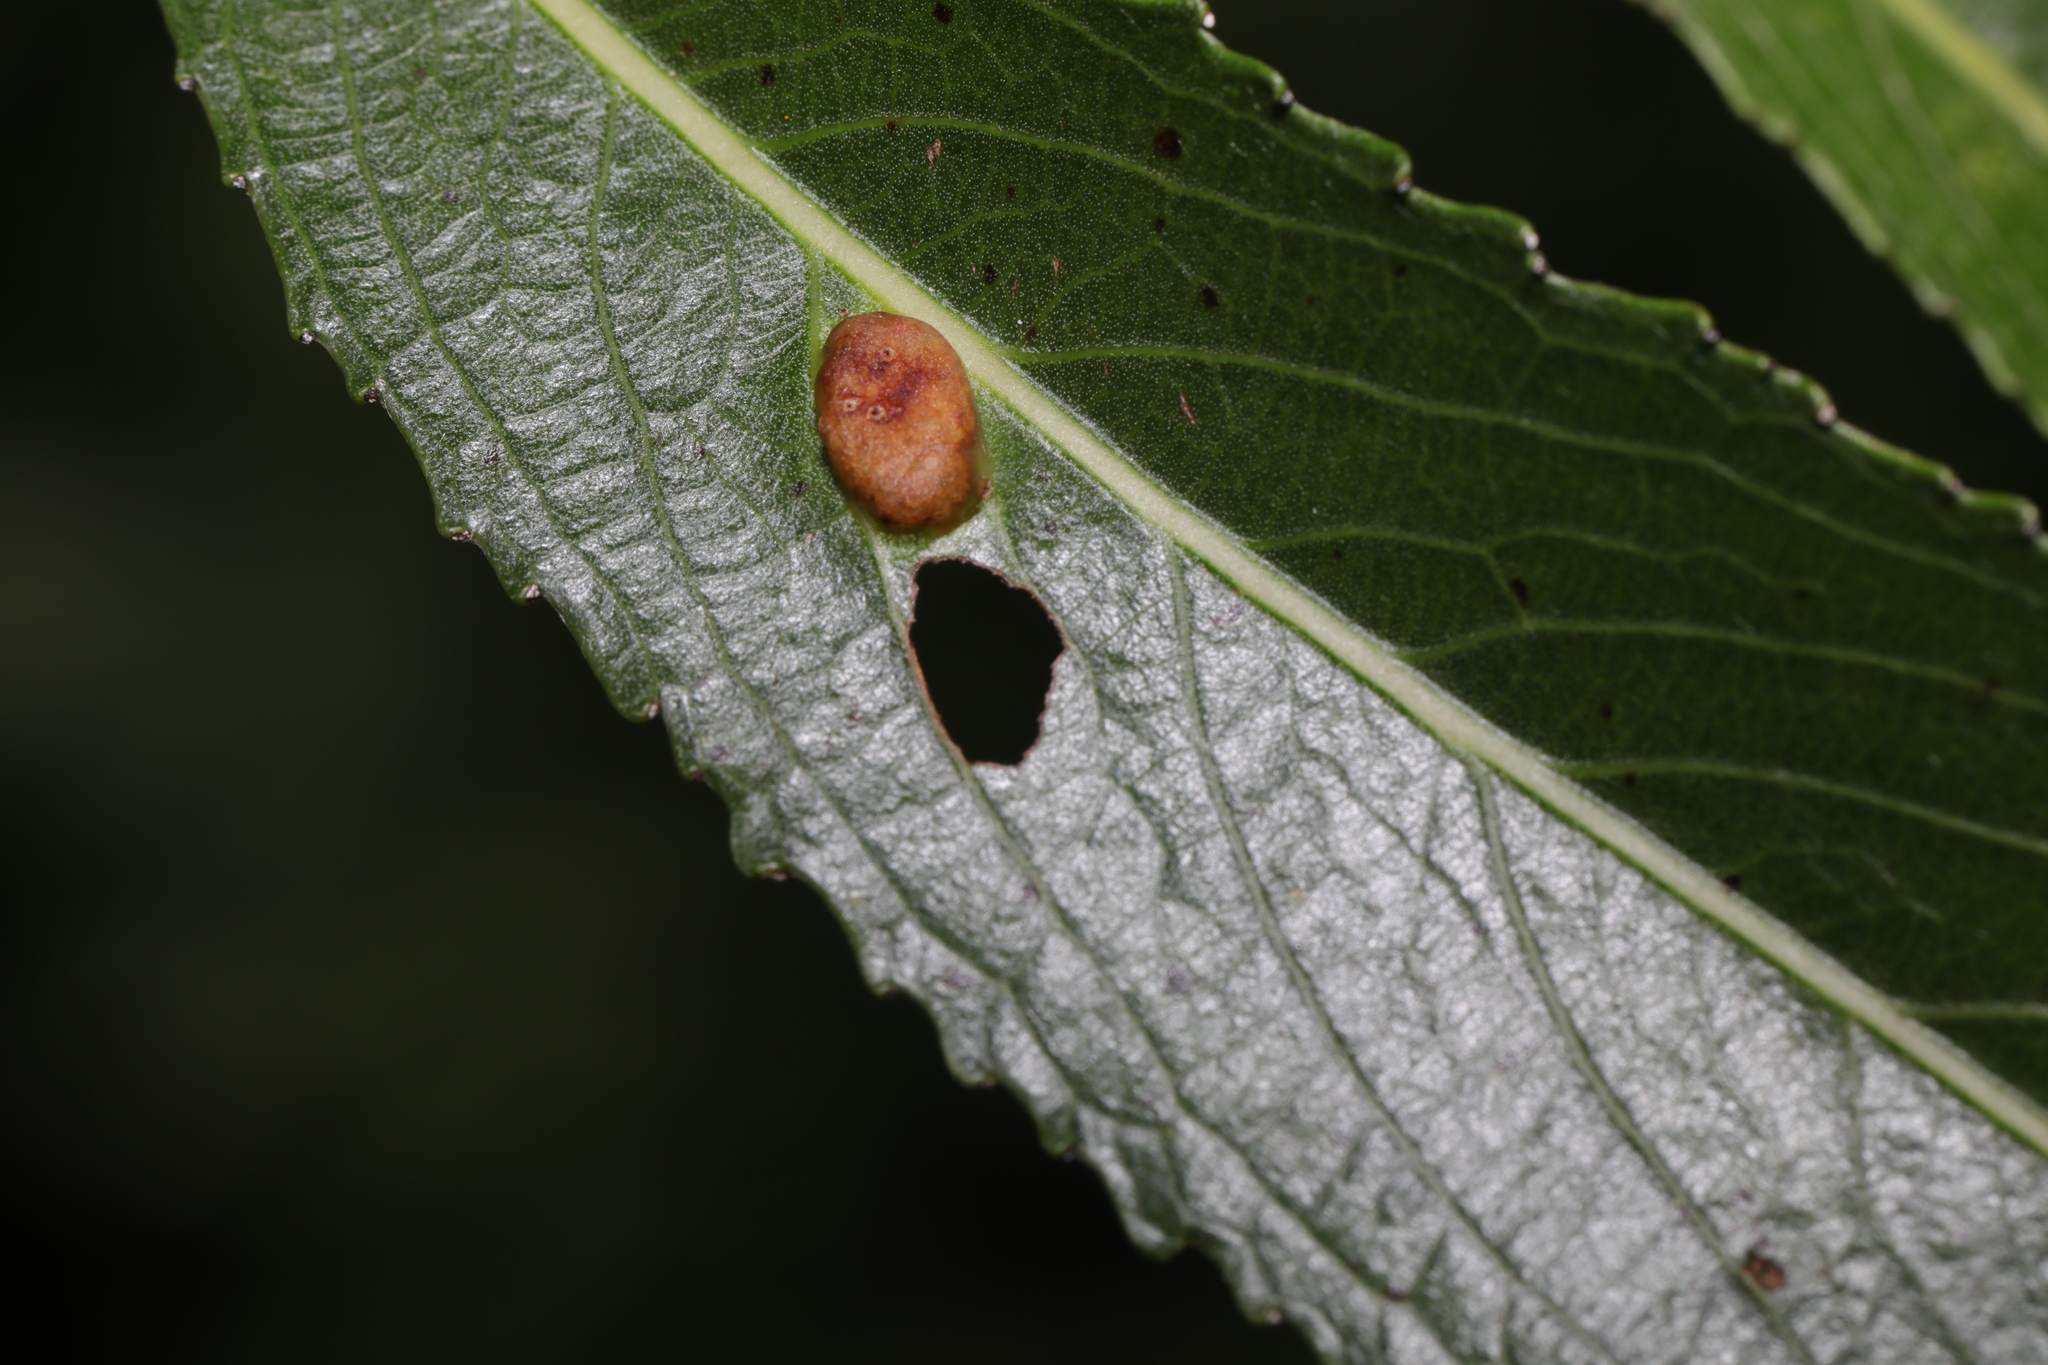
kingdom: Animalia
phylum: Arthropoda
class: Insecta
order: Hymenoptera
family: Tenthredinidae
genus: Pontania
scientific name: Pontania proxima
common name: Common sawfly
